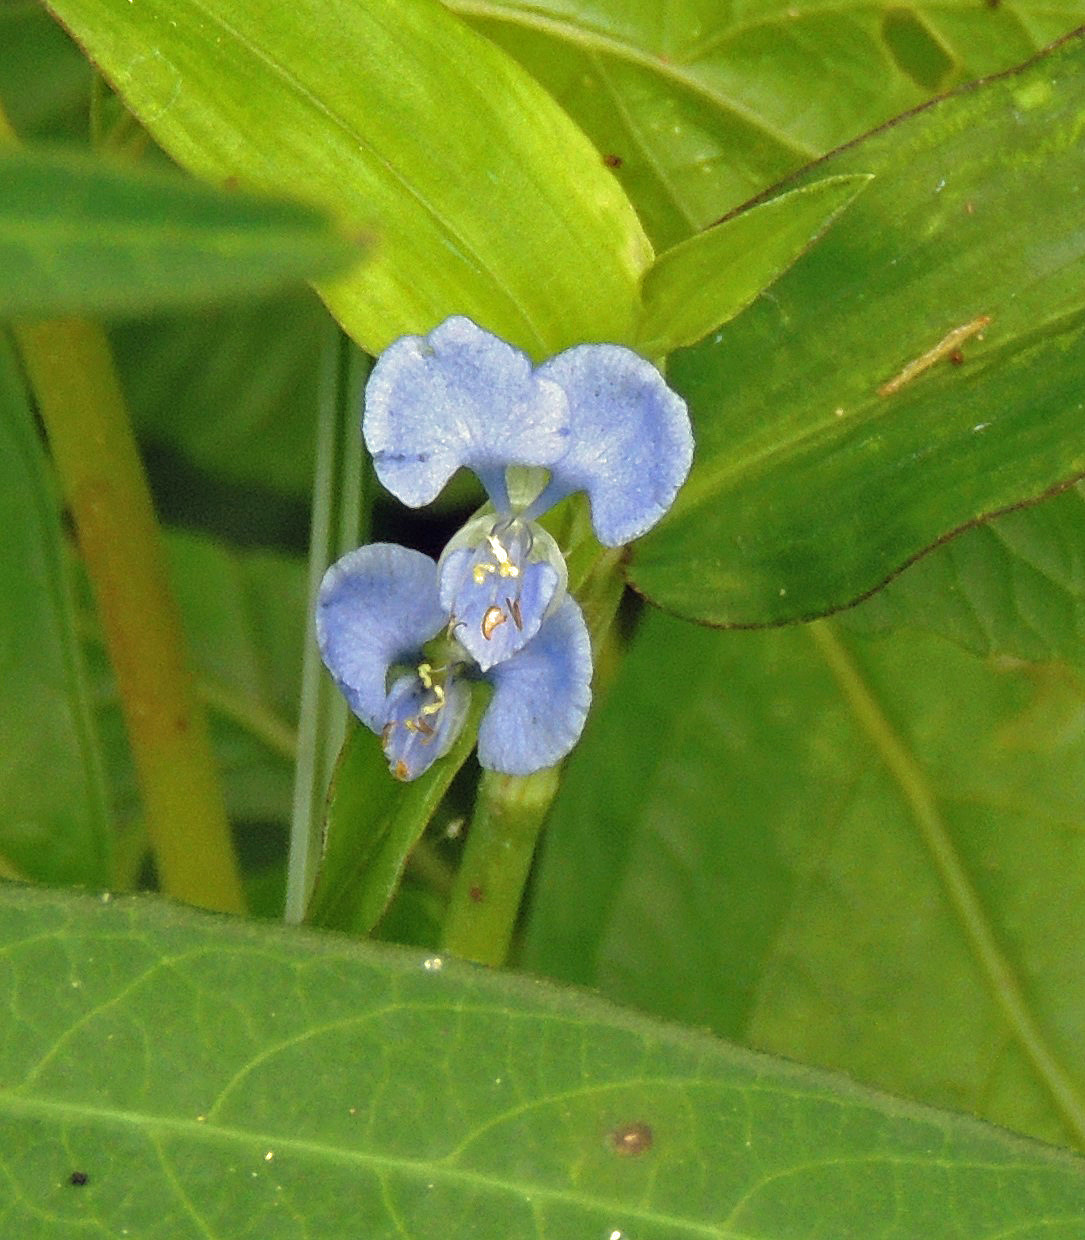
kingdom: Plantae
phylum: Tracheophyta
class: Liliopsida
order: Commelinales
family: Commelinaceae
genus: Commelina
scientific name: Commelina diffusa
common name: Climbing dayflower
